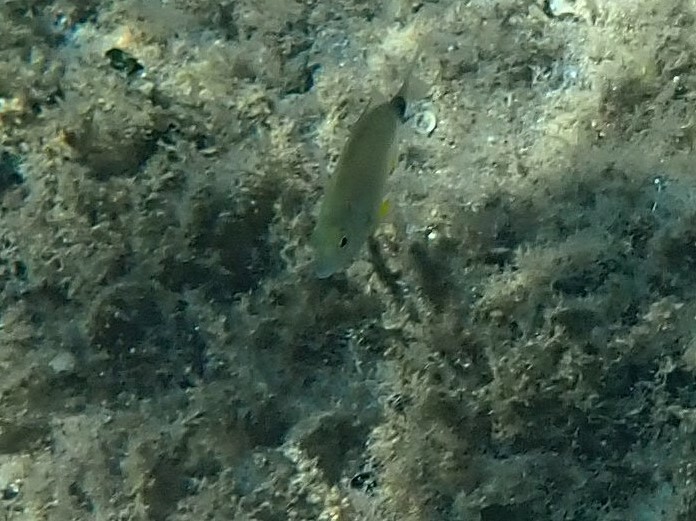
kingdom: Animalia
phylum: Chordata
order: Perciformes
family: Sparidae
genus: Diplodus
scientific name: Diplodus annularis
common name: Annular seabream
